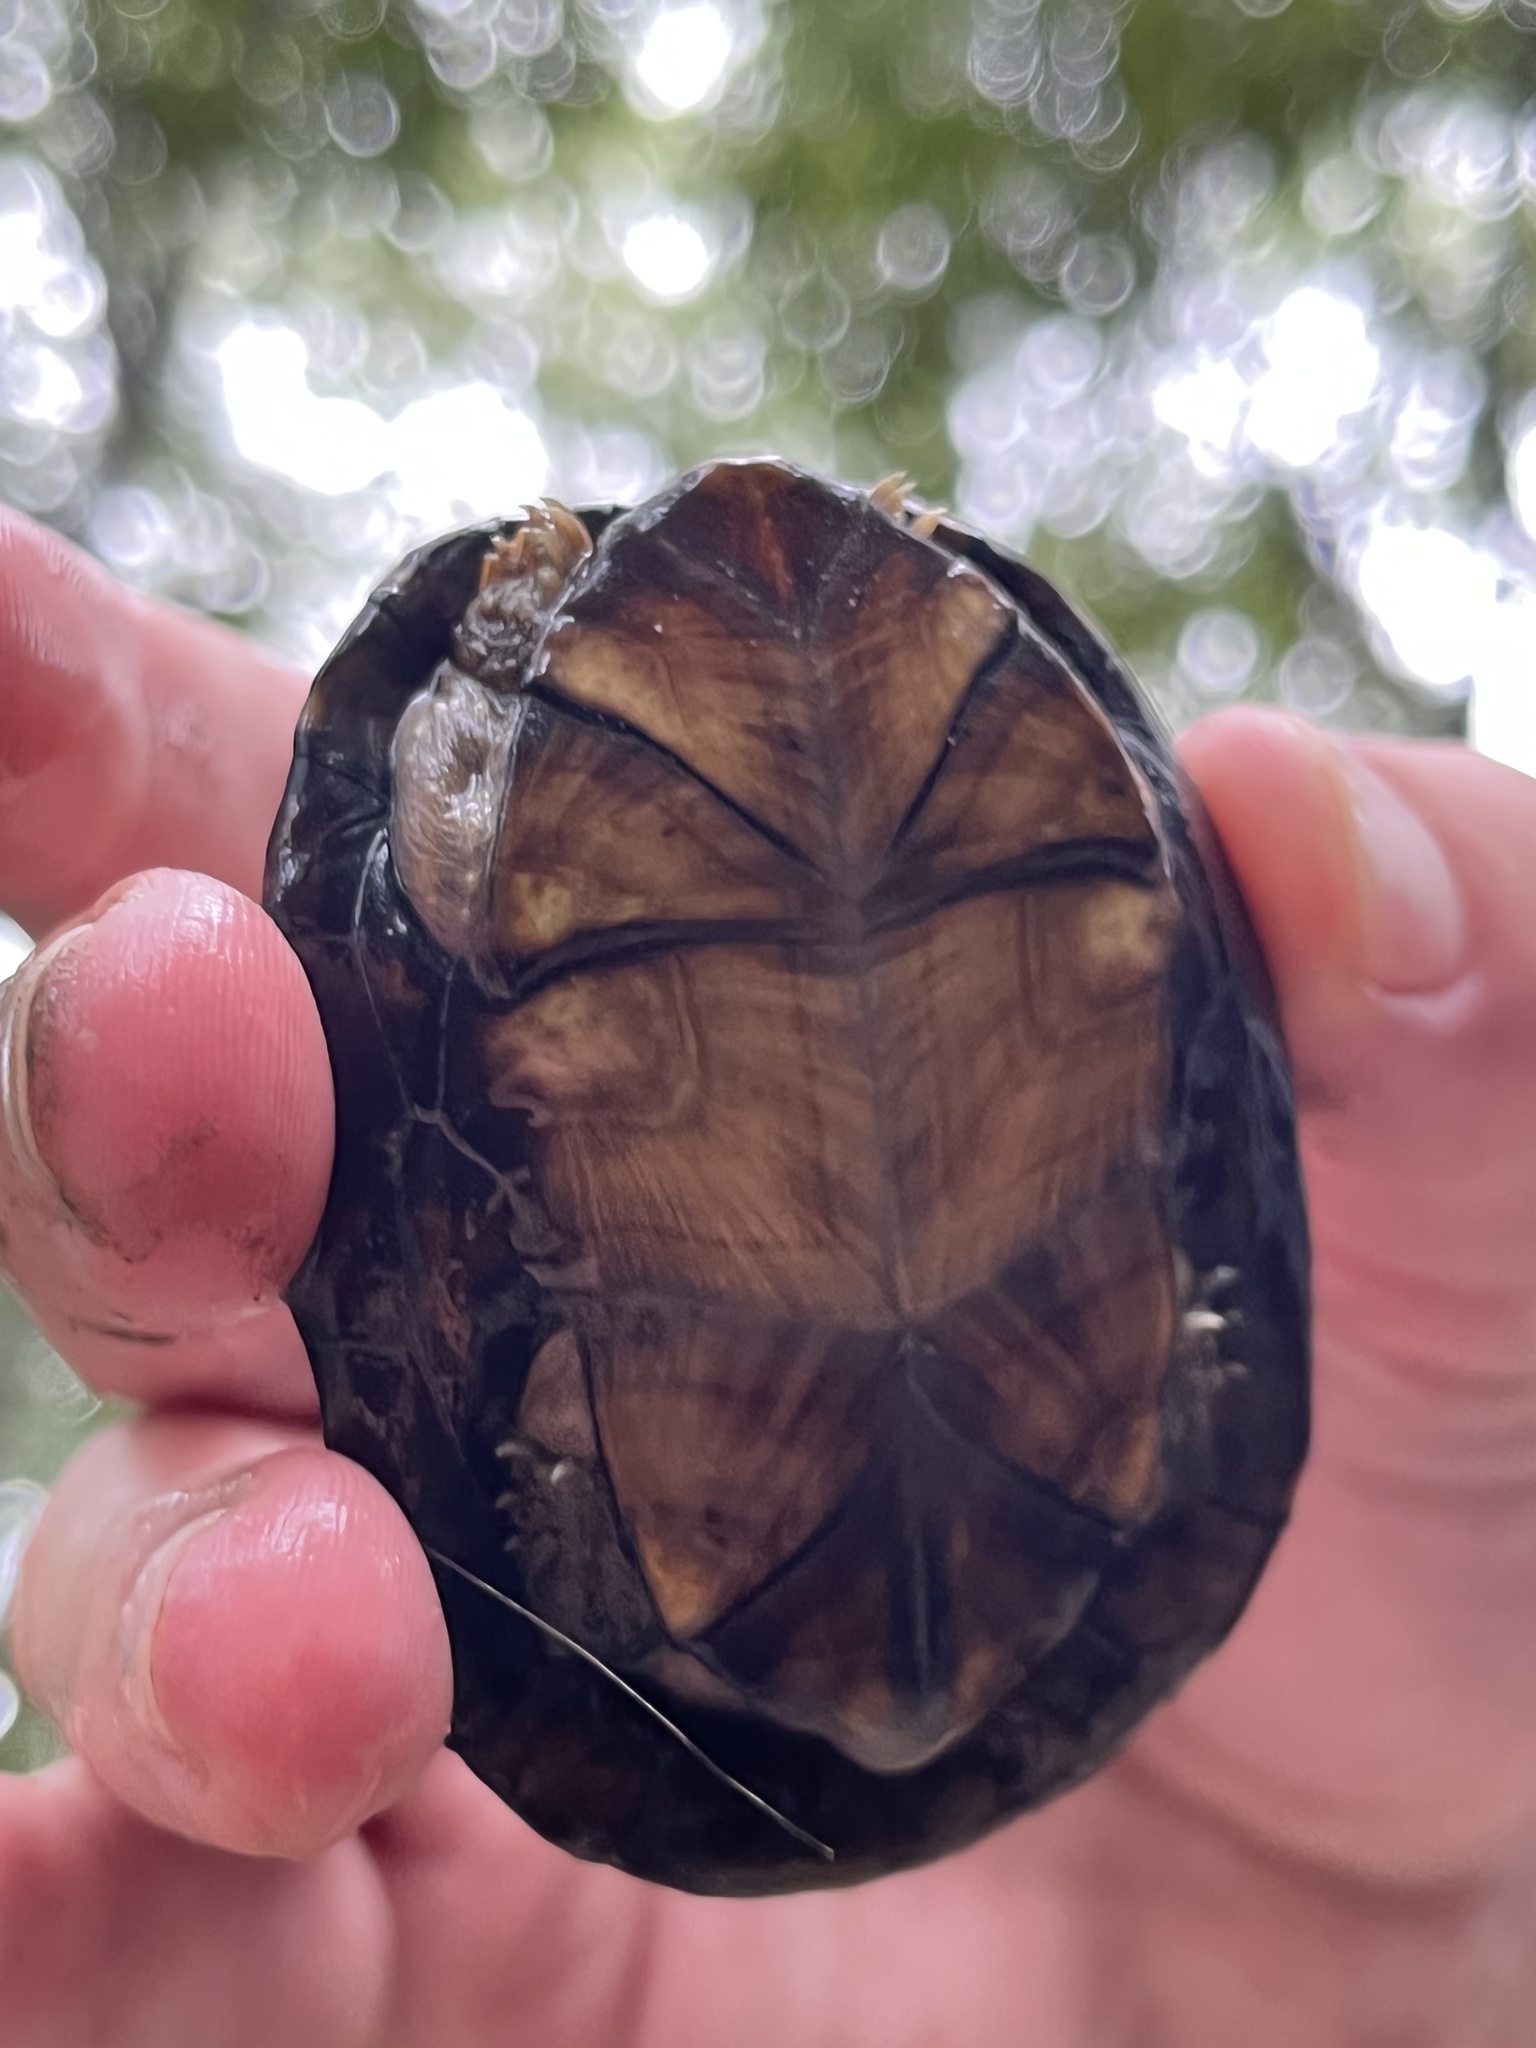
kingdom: Animalia
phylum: Chordata
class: Testudines
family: Kinosternidae
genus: Kinosternon
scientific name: Kinosternon scorpioides
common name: Scorpion mud turtle
